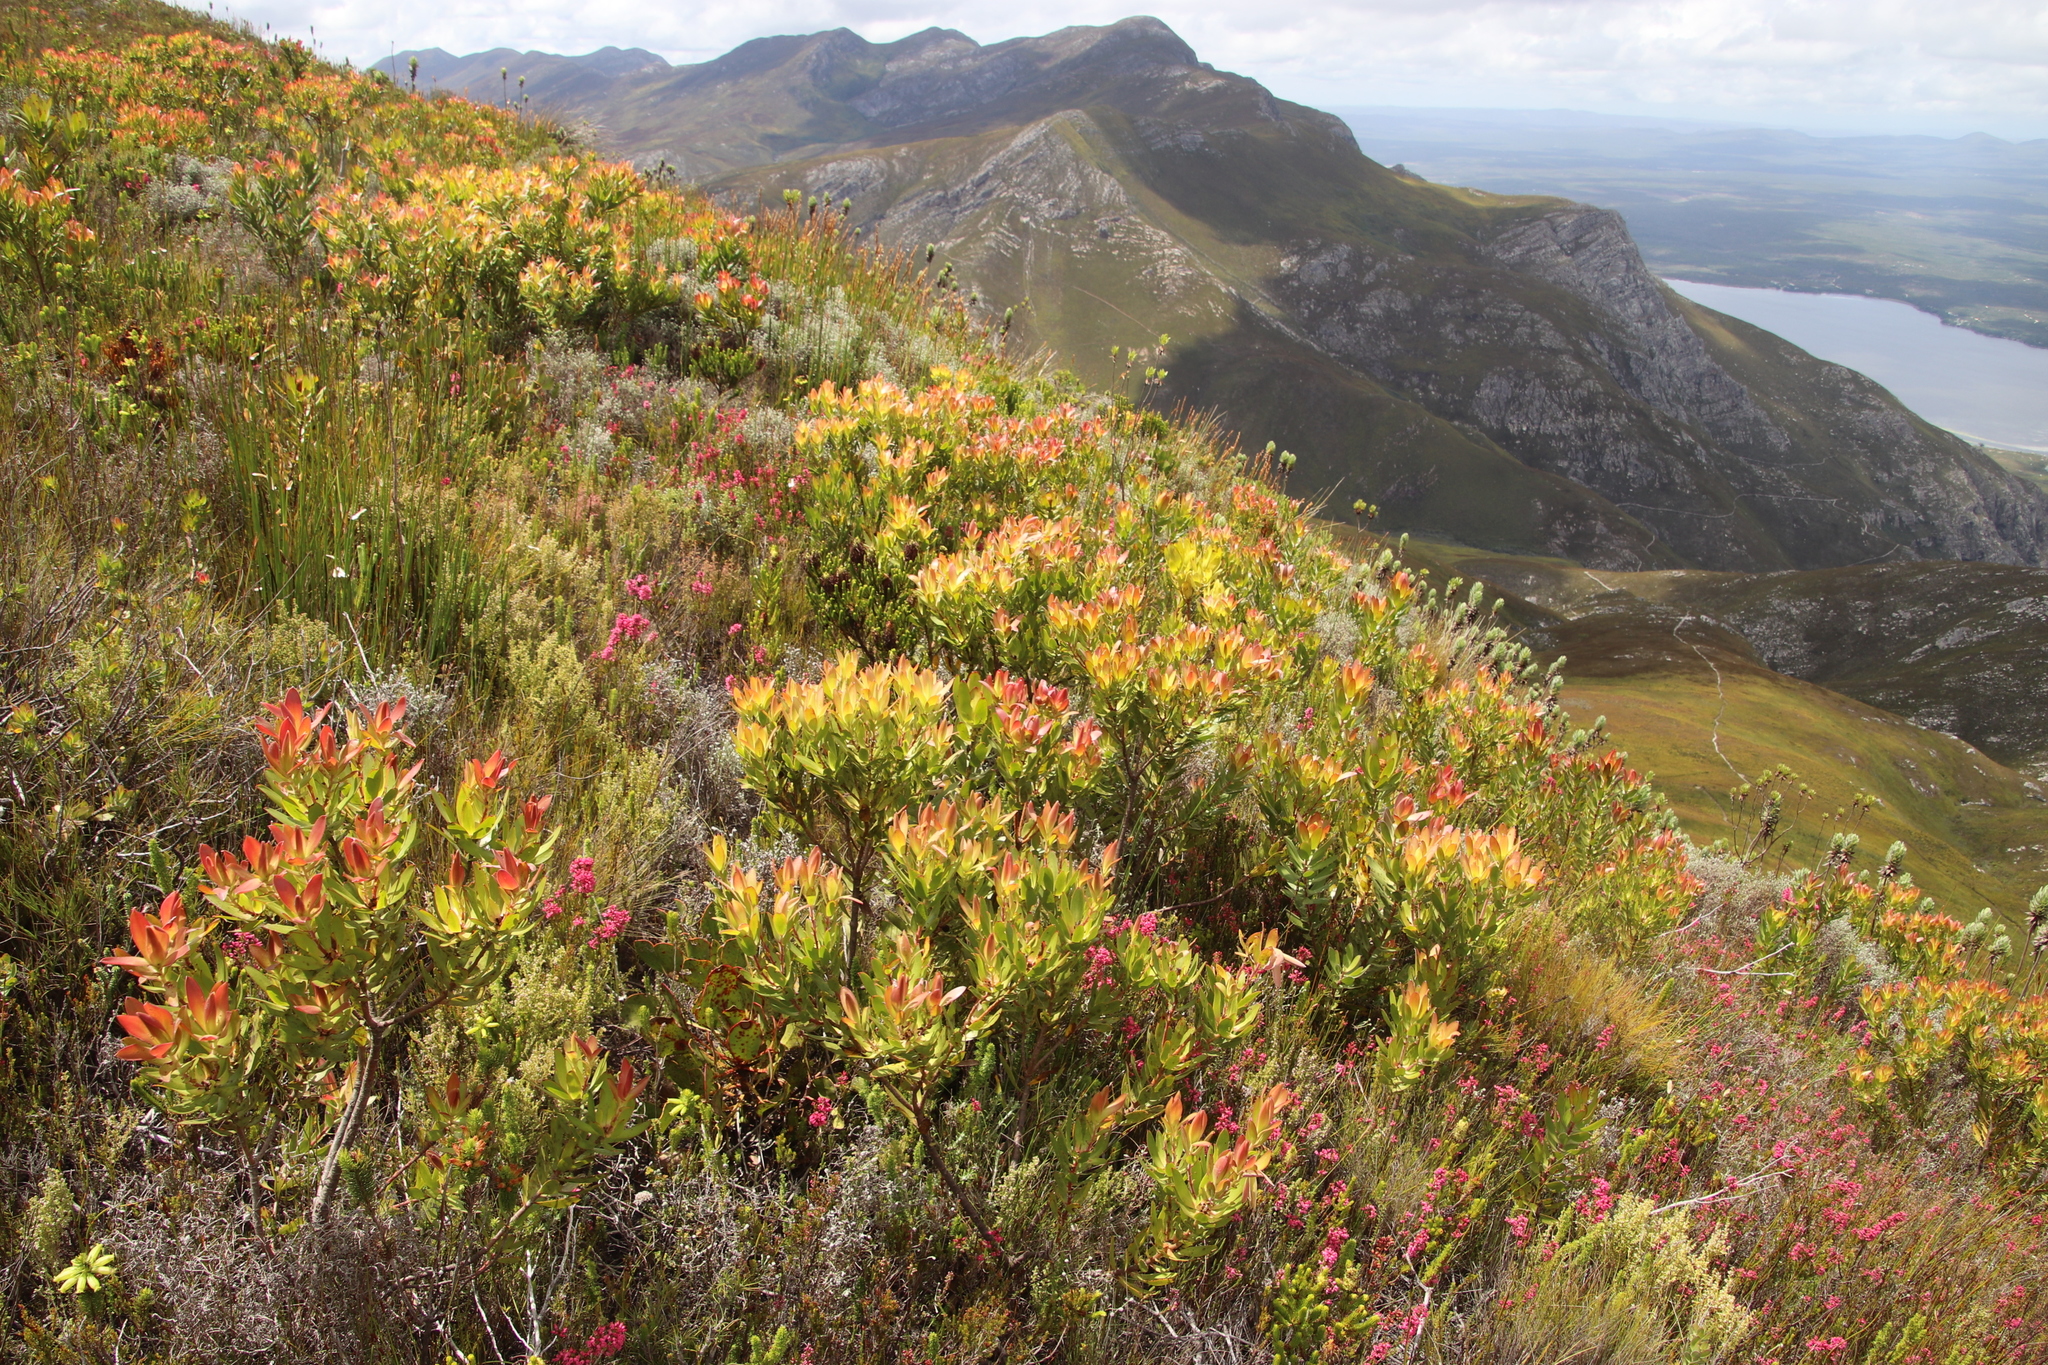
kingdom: Plantae
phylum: Tracheophyta
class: Magnoliopsida
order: Proteales
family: Proteaceae
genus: Leucadendron
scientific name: Leucadendron gandogeri
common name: Broad-leaf conebush
